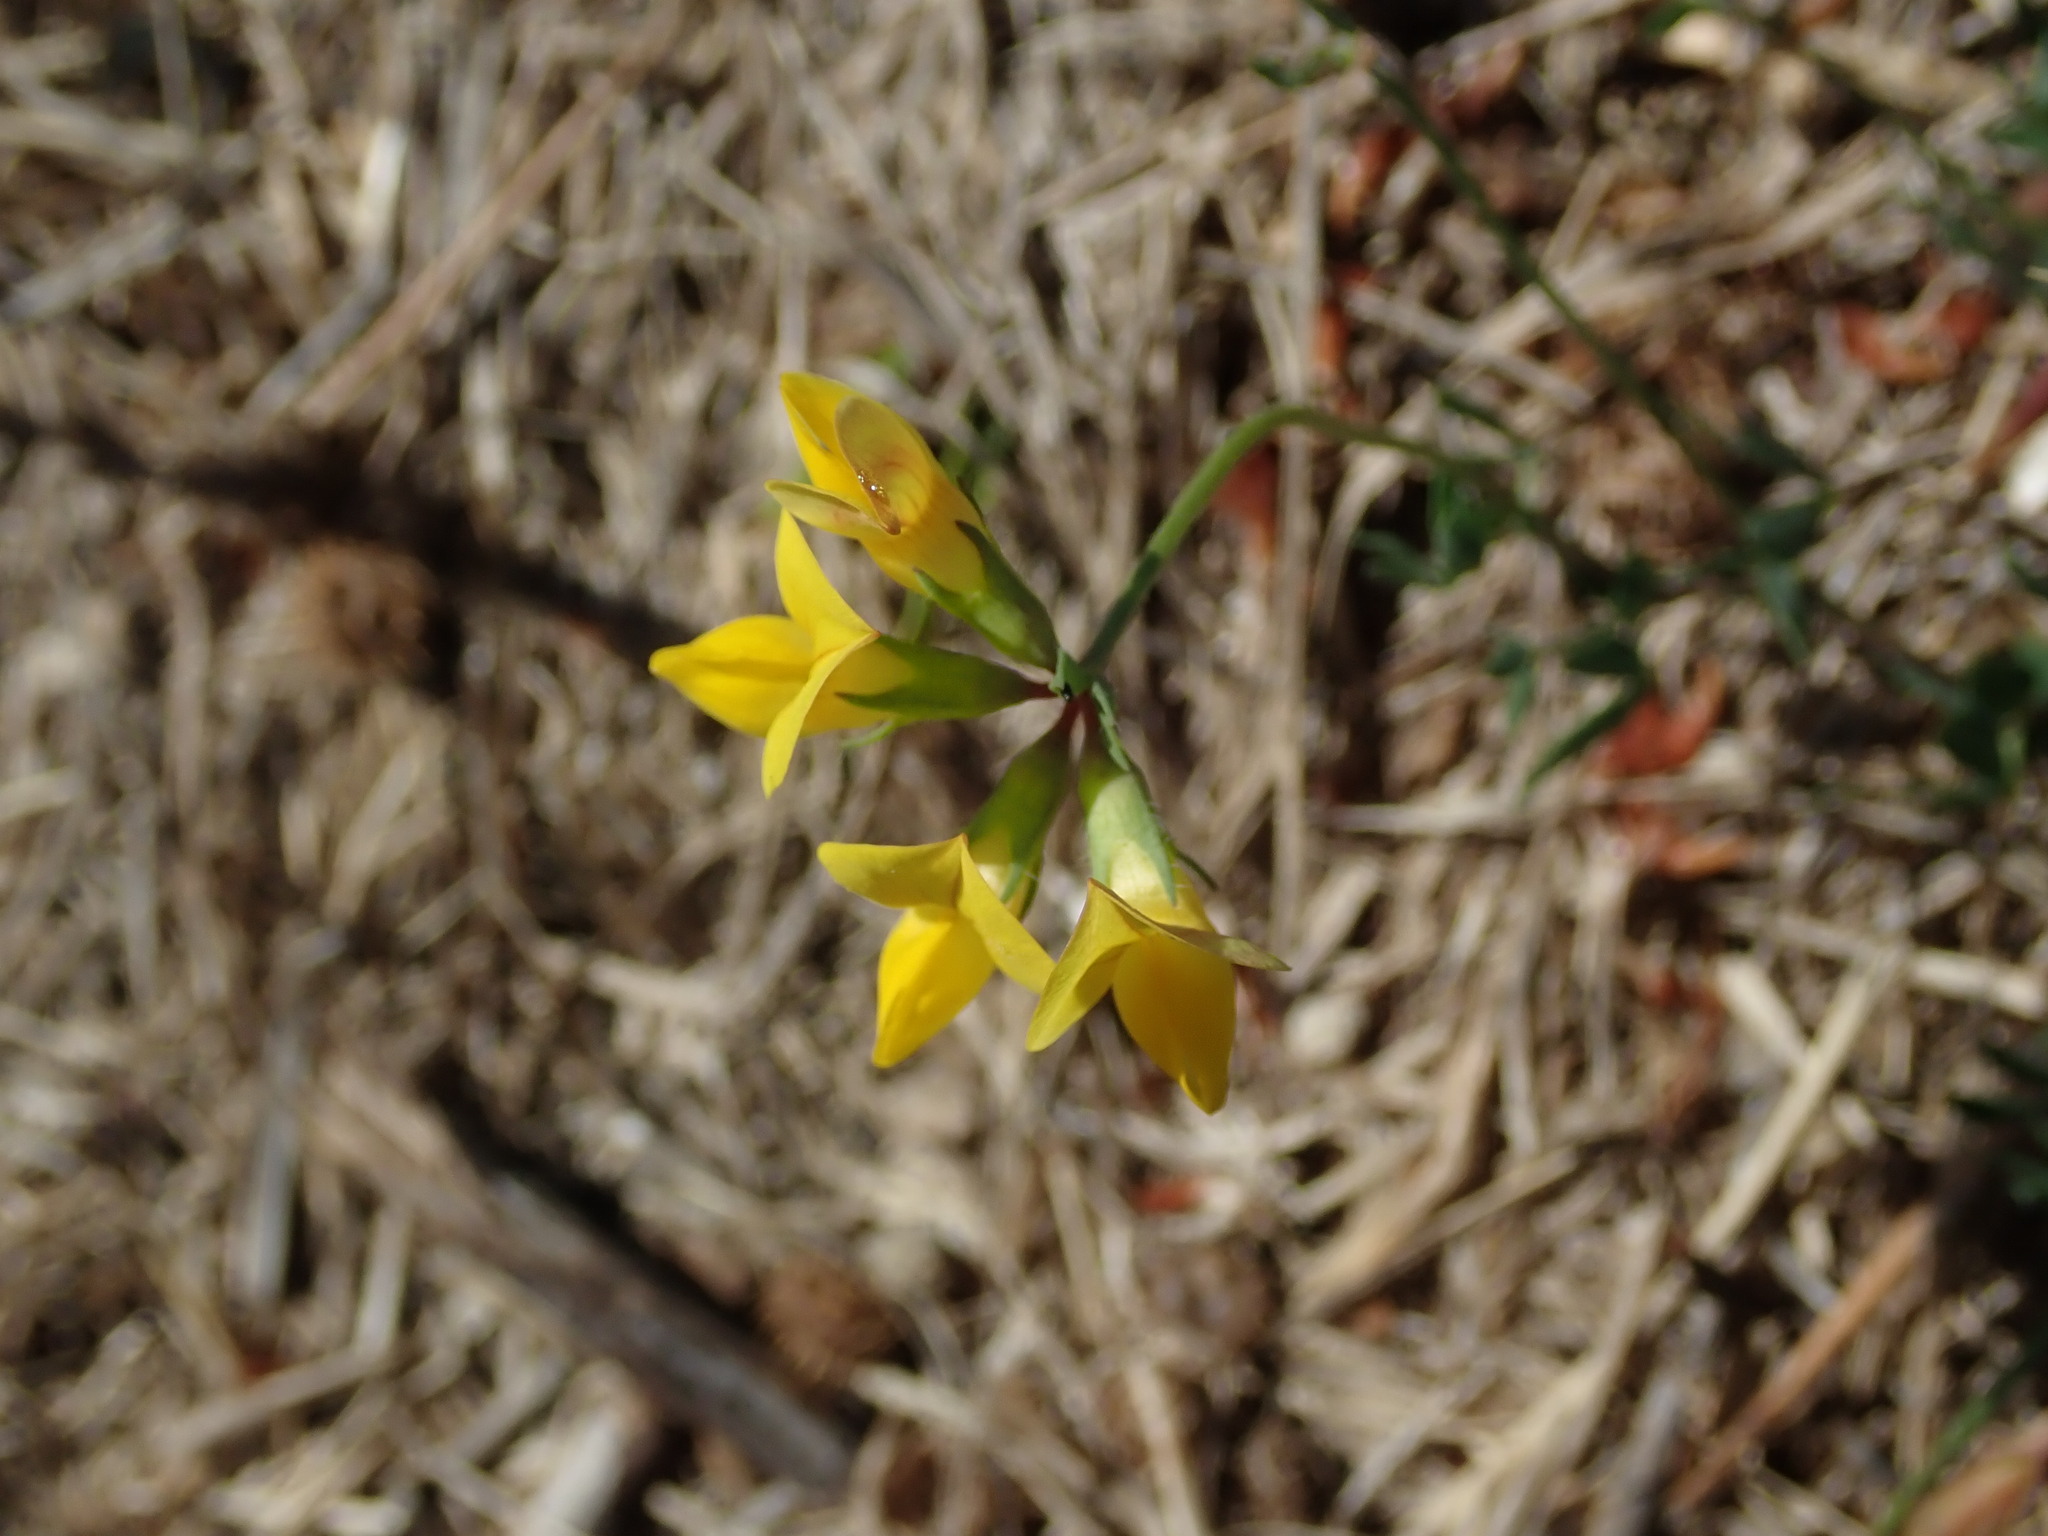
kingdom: Plantae
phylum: Tracheophyta
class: Magnoliopsida
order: Fabales
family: Fabaceae
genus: Lotus
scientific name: Lotus corniculatus
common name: Common bird's-foot-trefoil
